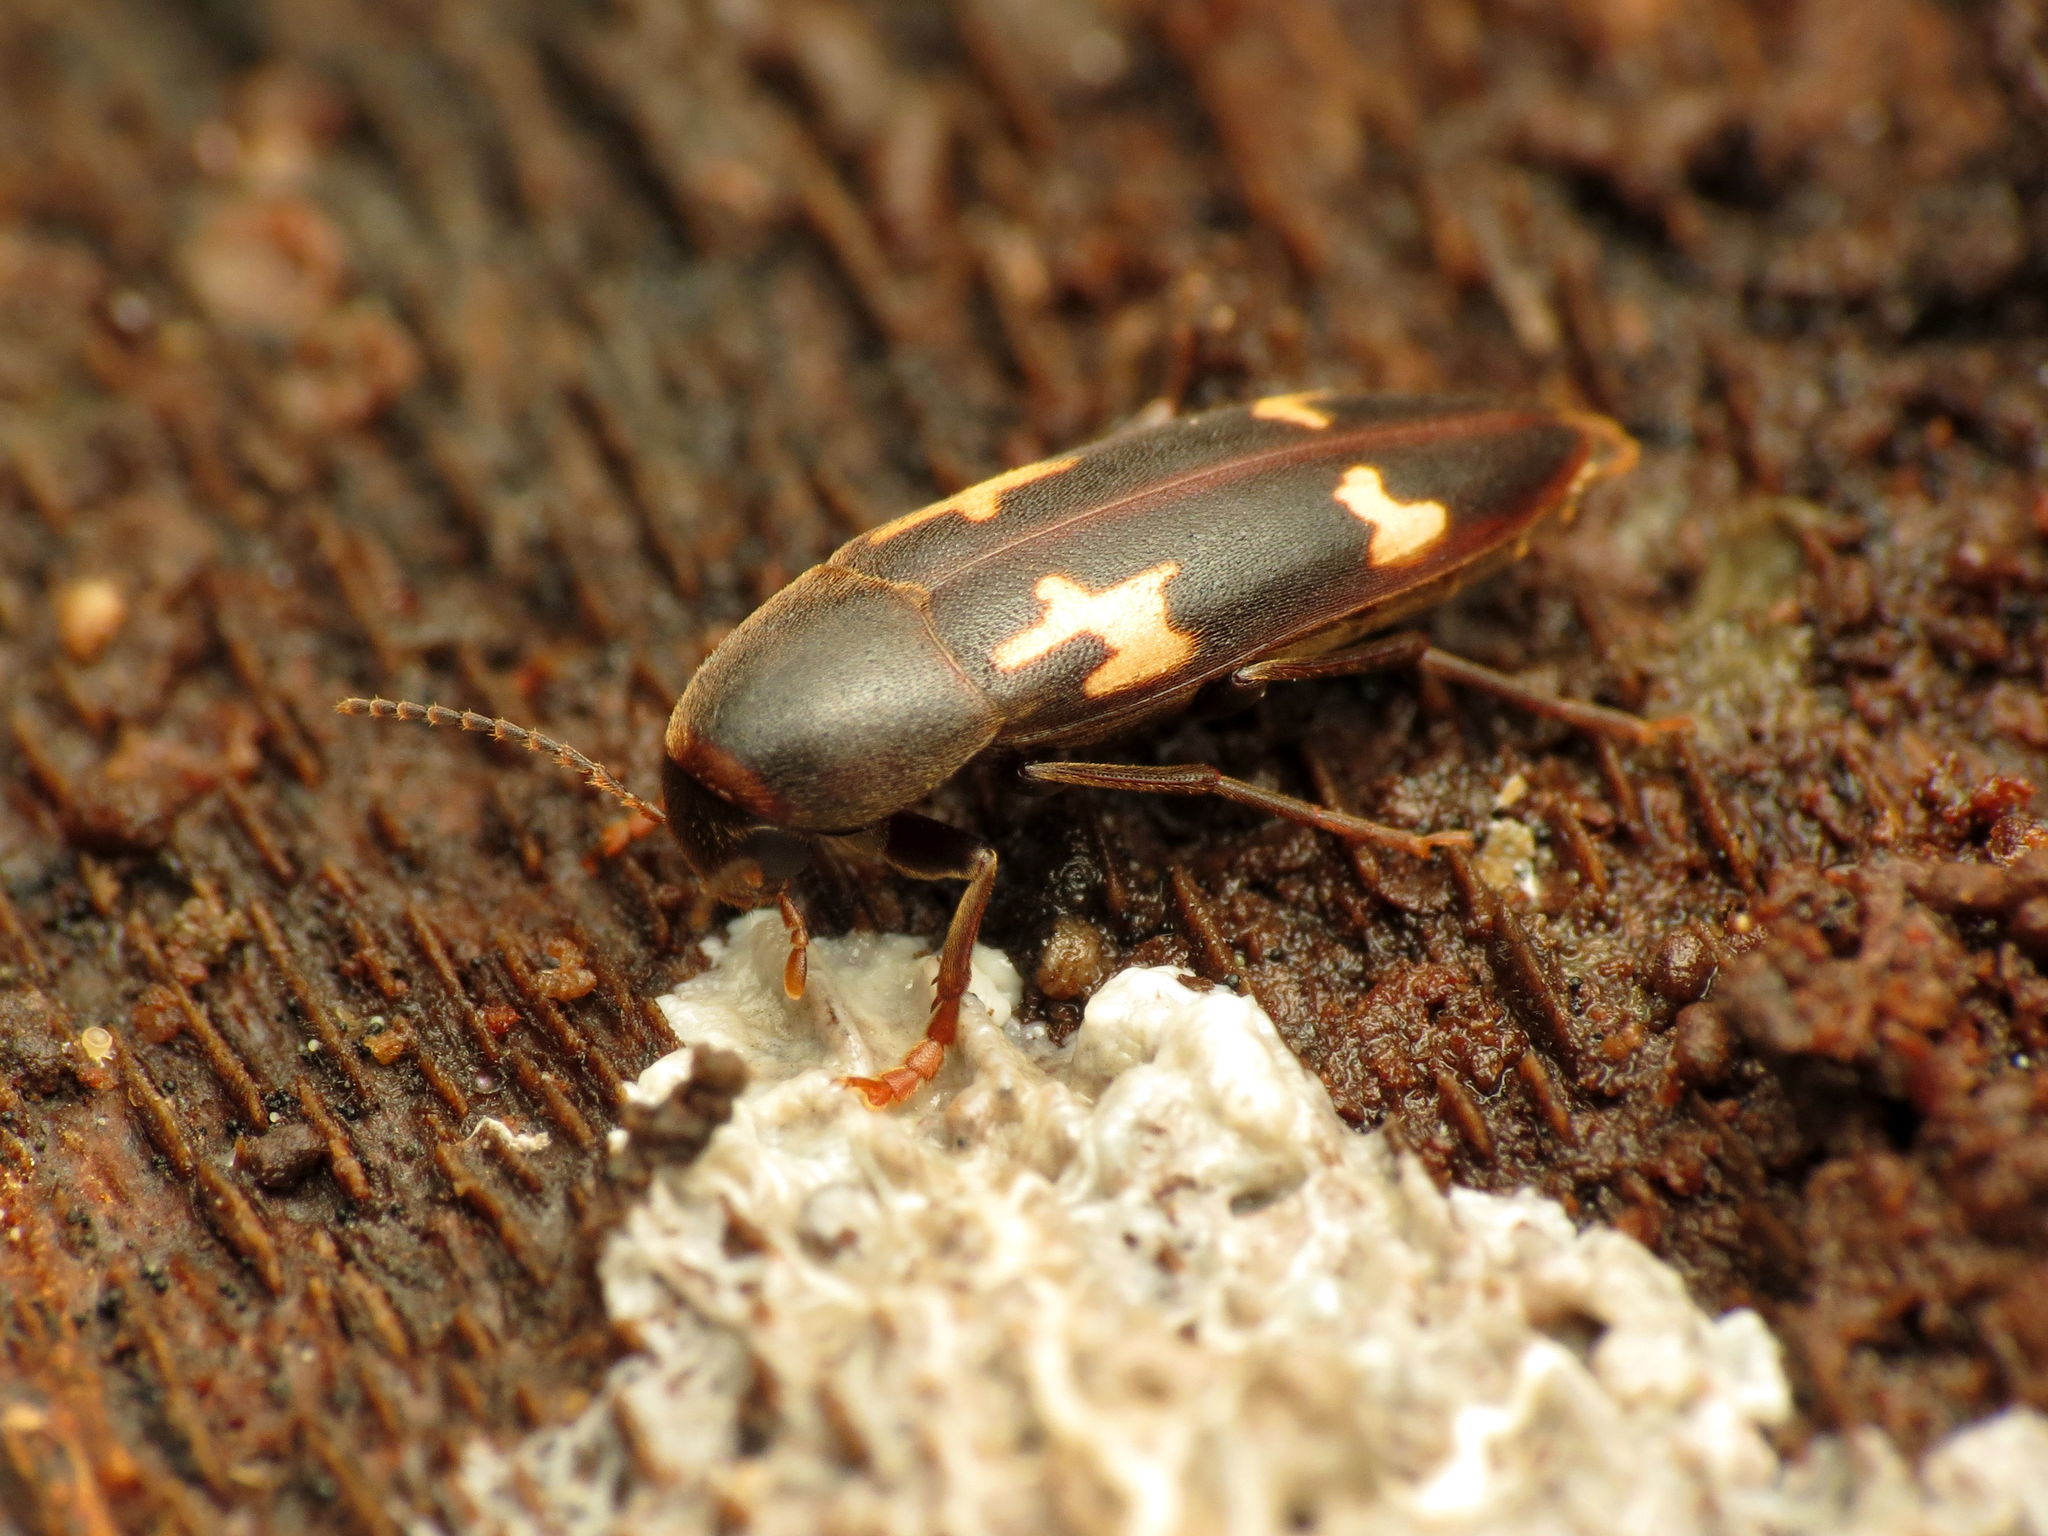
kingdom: Animalia
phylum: Arthropoda
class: Insecta
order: Coleoptera
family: Melandryidae
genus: Dircaea
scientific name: Dircaea liturata
